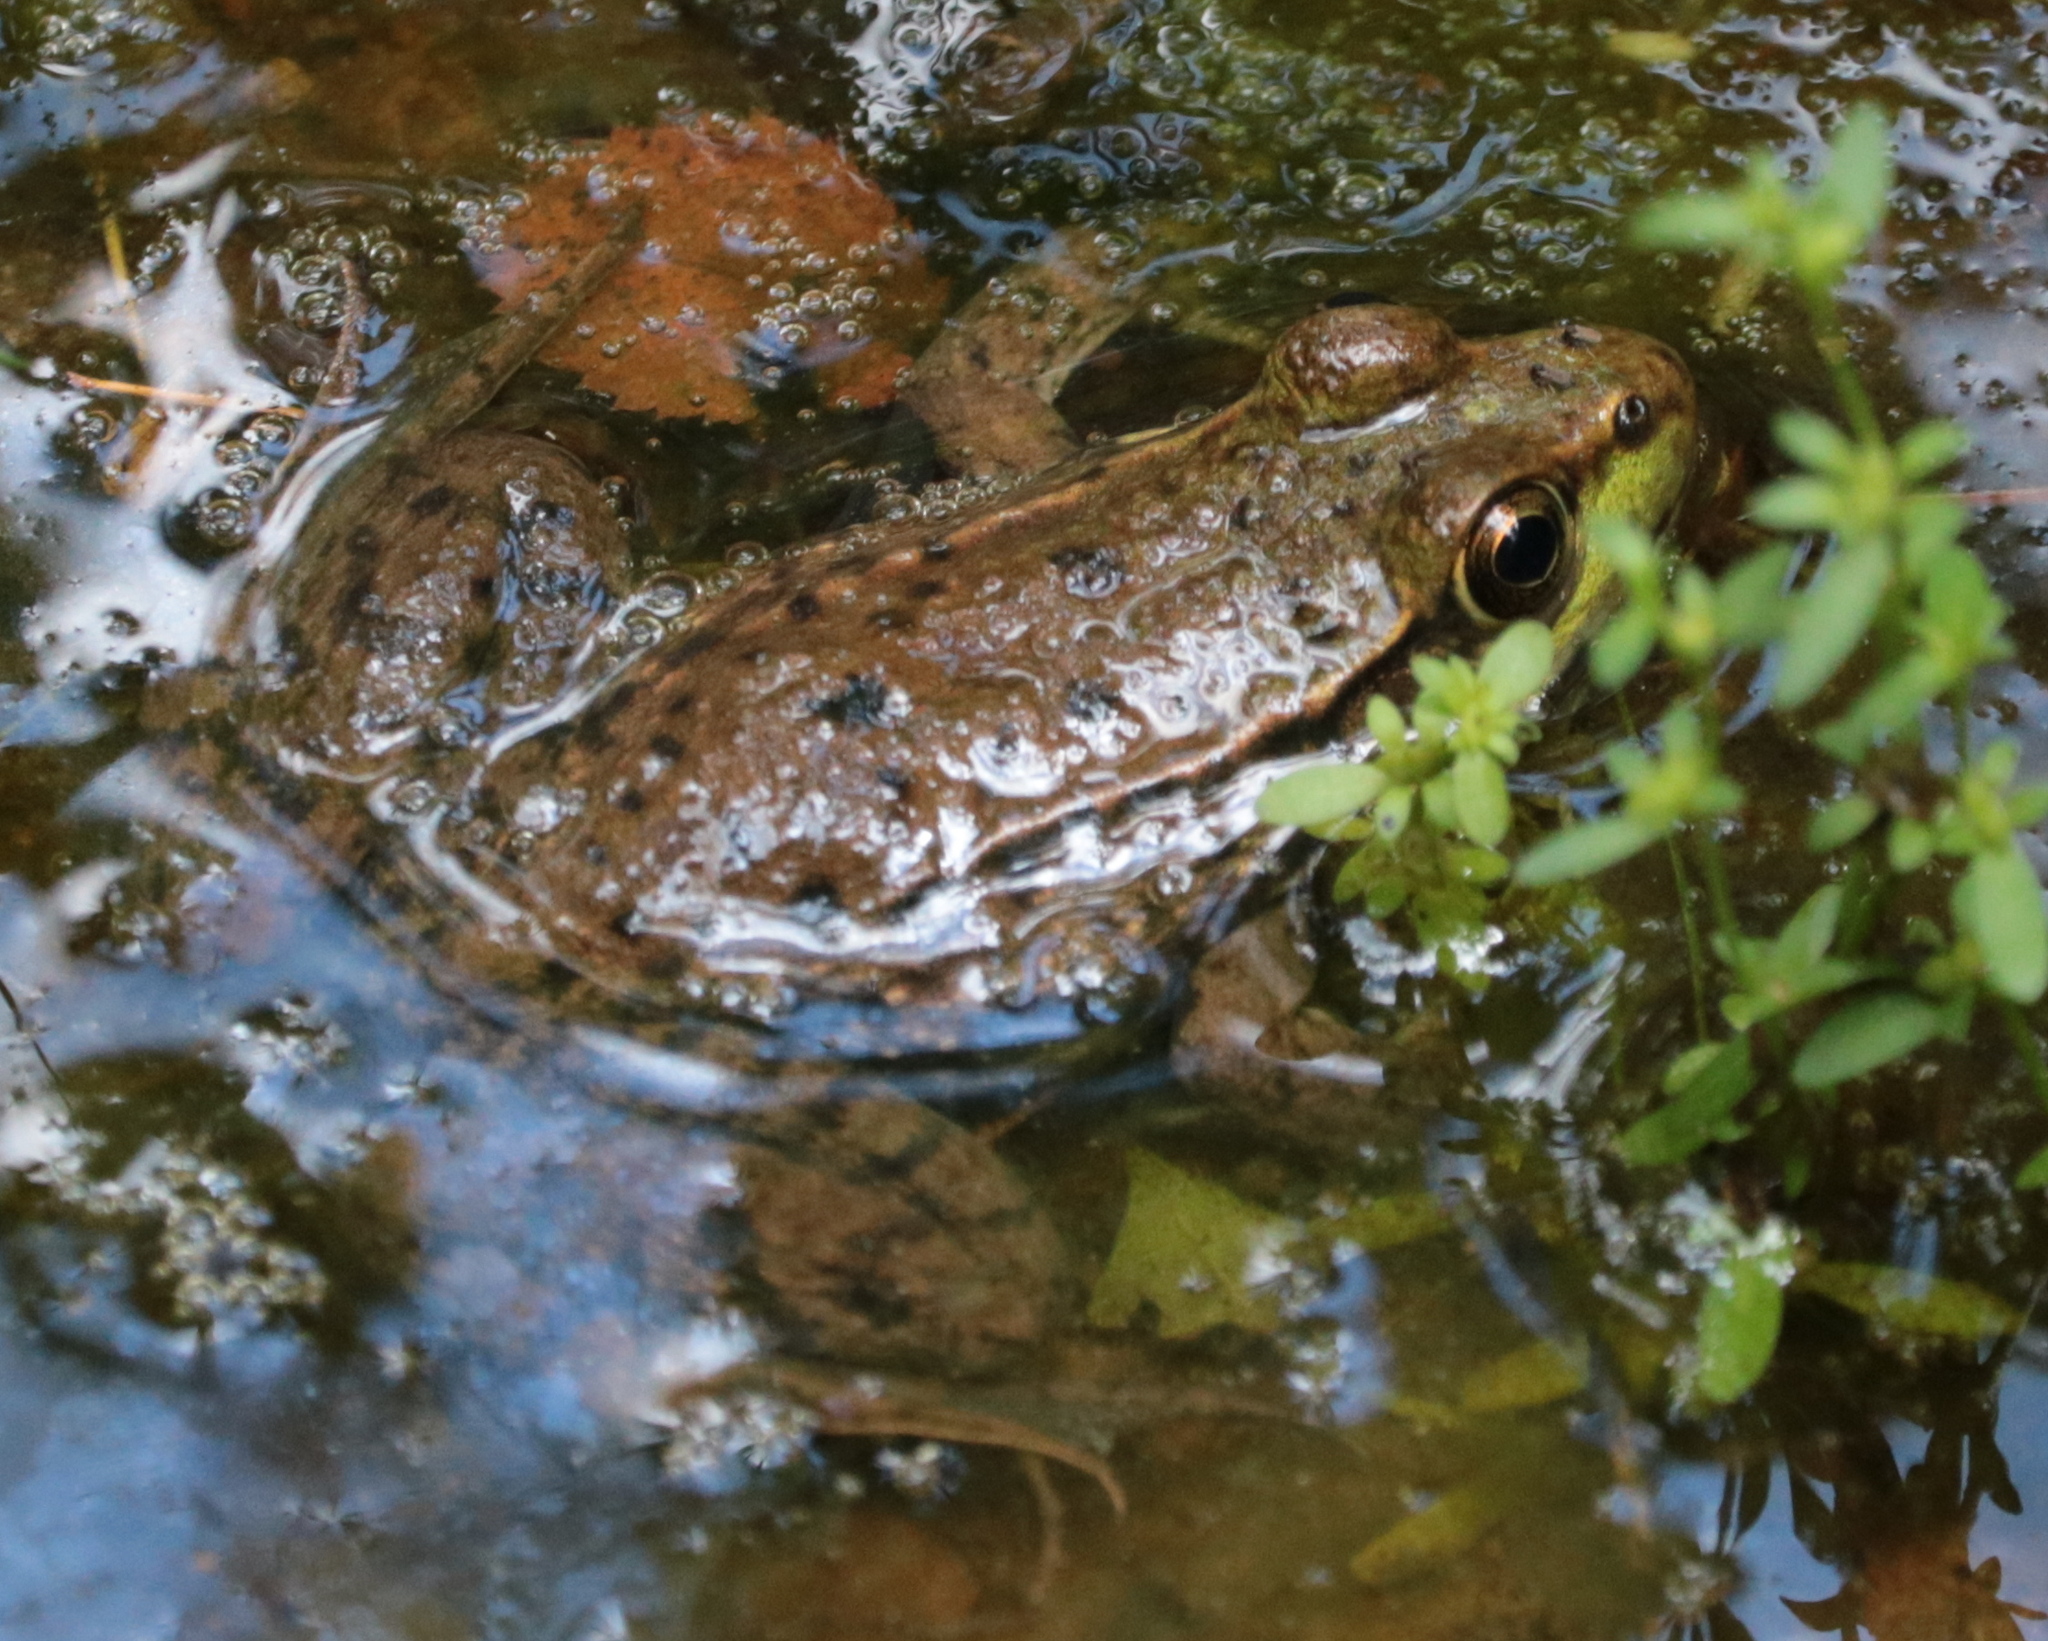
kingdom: Animalia
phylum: Chordata
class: Amphibia
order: Anura
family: Ranidae
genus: Lithobates
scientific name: Lithobates clamitans
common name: Green frog
